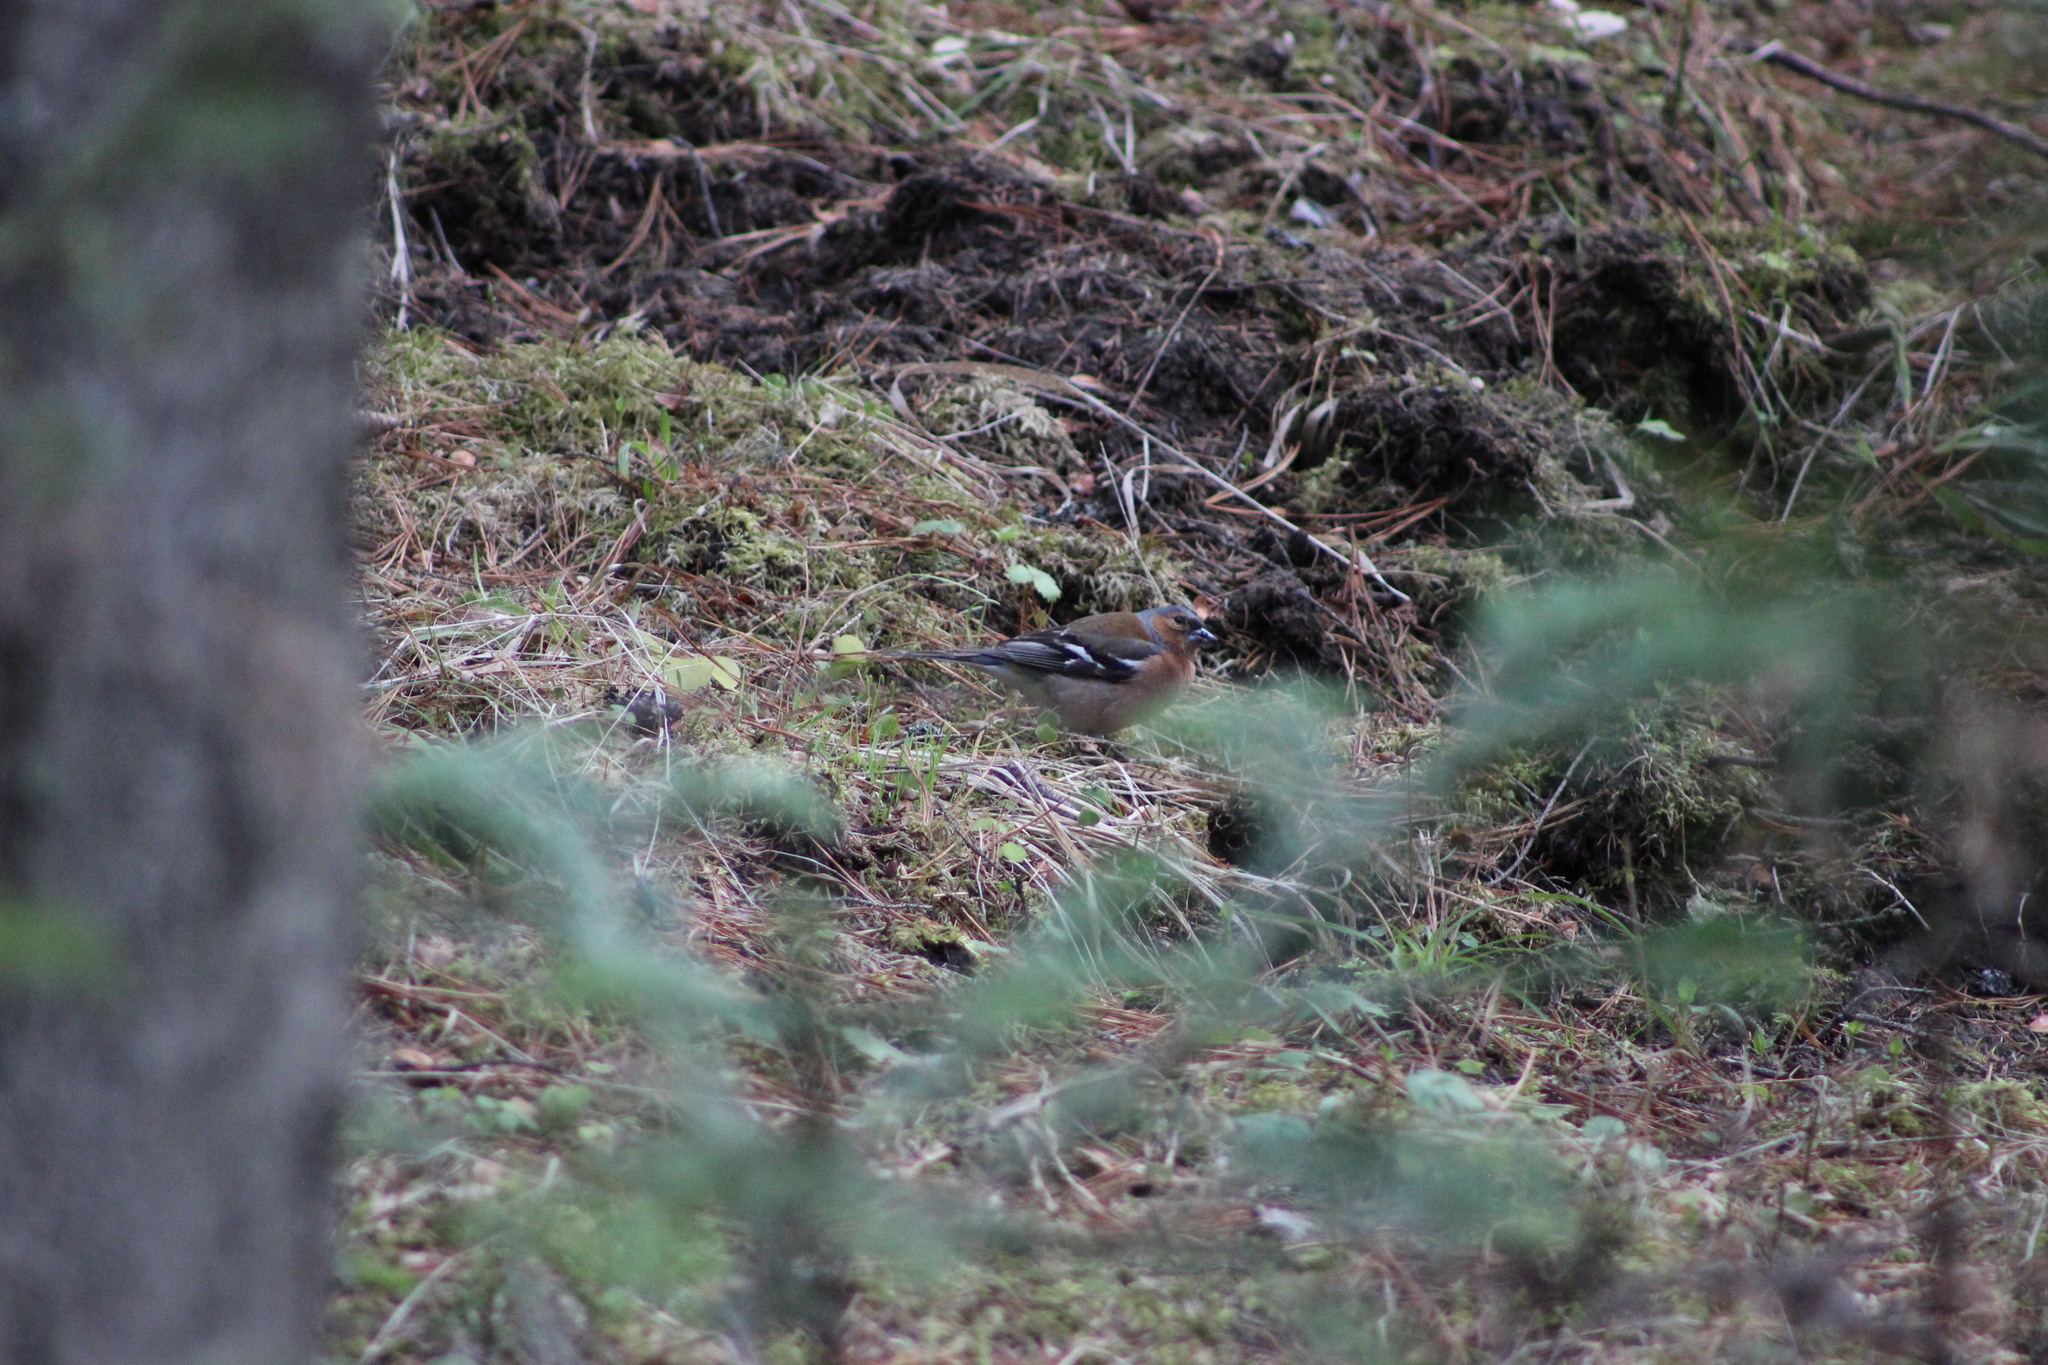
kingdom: Animalia
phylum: Chordata
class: Aves
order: Passeriformes
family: Fringillidae
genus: Fringilla
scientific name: Fringilla coelebs
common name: Common chaffinch
